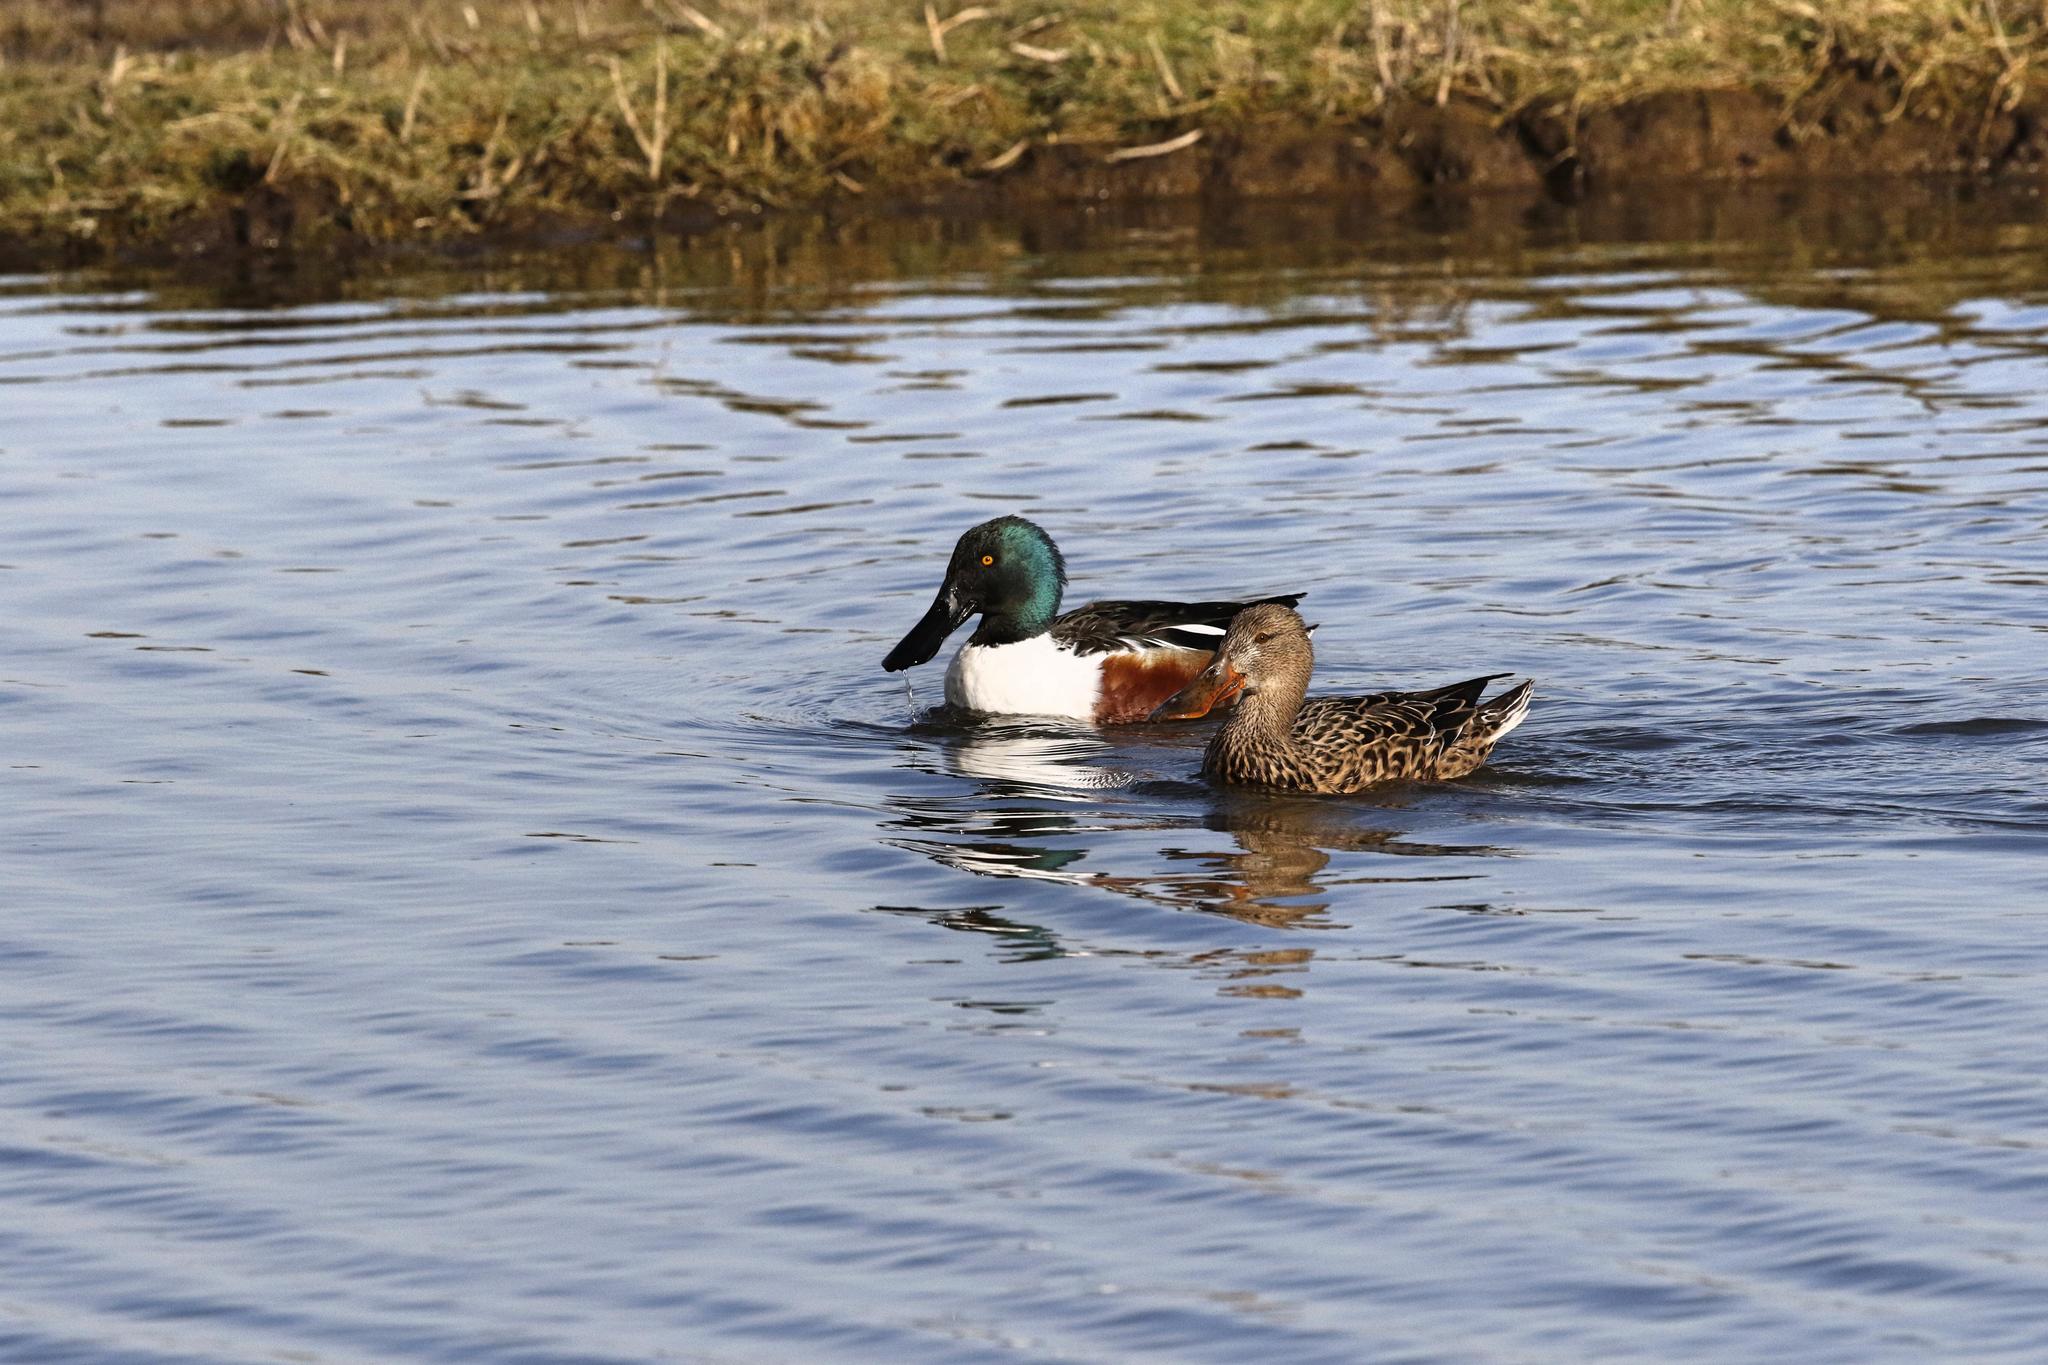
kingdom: Animalia
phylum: Chordata
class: Aves
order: Anseriformes
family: Anatidae
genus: Spatula
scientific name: Spatula clypeata
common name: Northern shoveler
